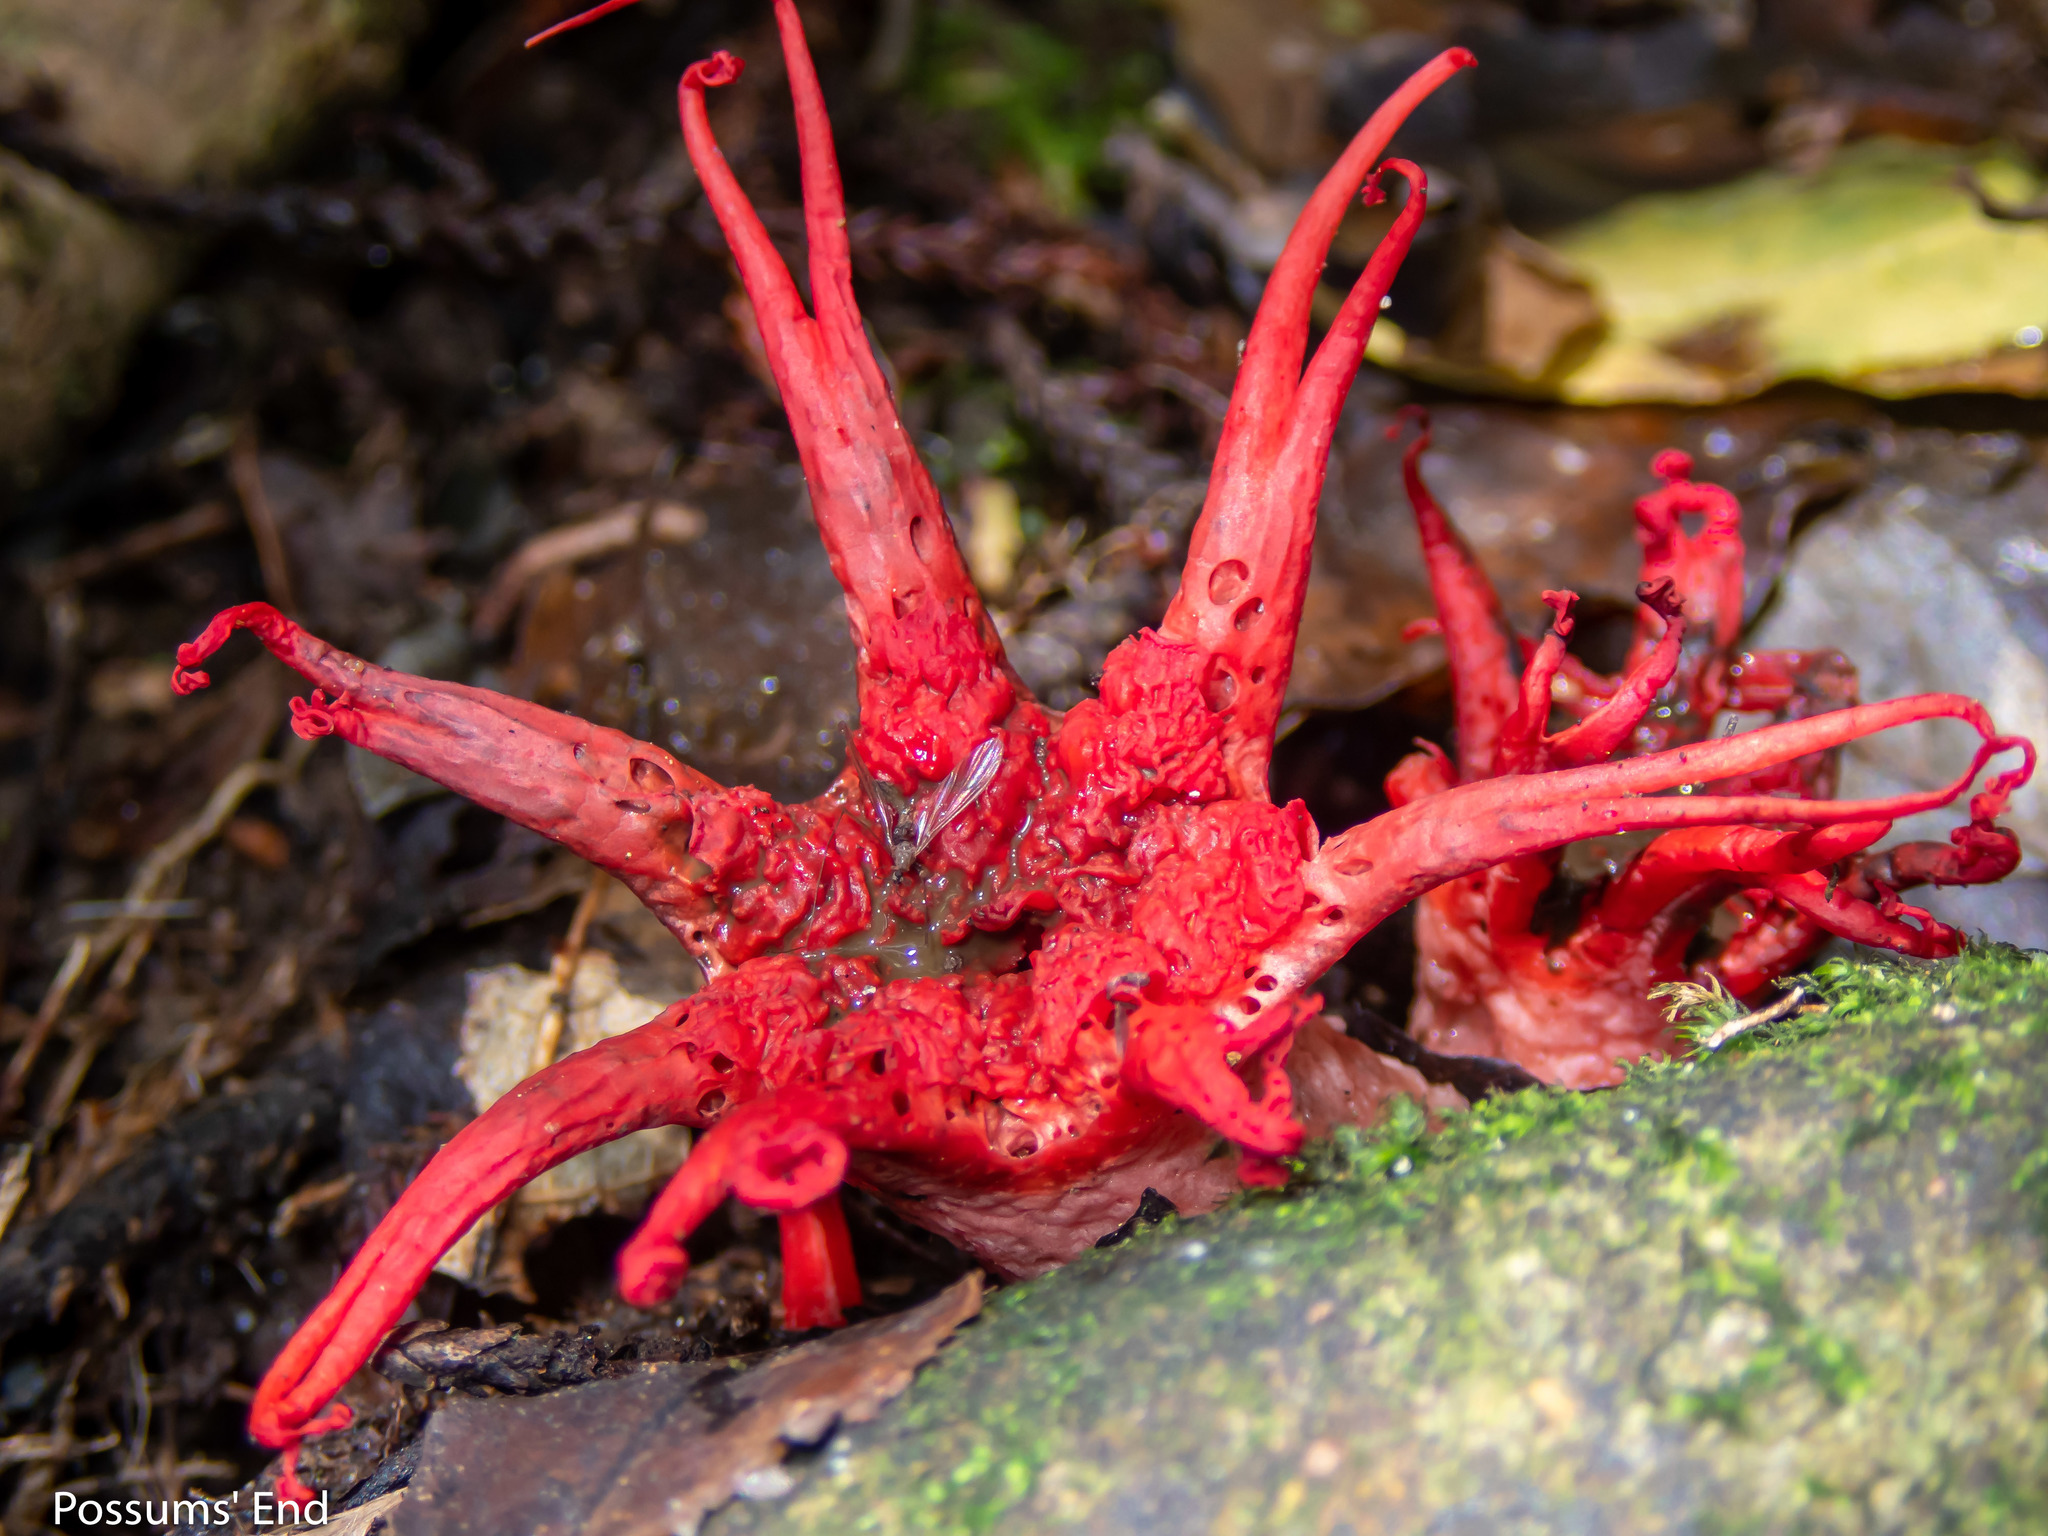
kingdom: Fungi
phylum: Basidiomycota
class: Agaricomycetes
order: Phallales
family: Phallaceae
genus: Aseroe
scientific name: Aseroe rubra
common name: Starfish fungus
